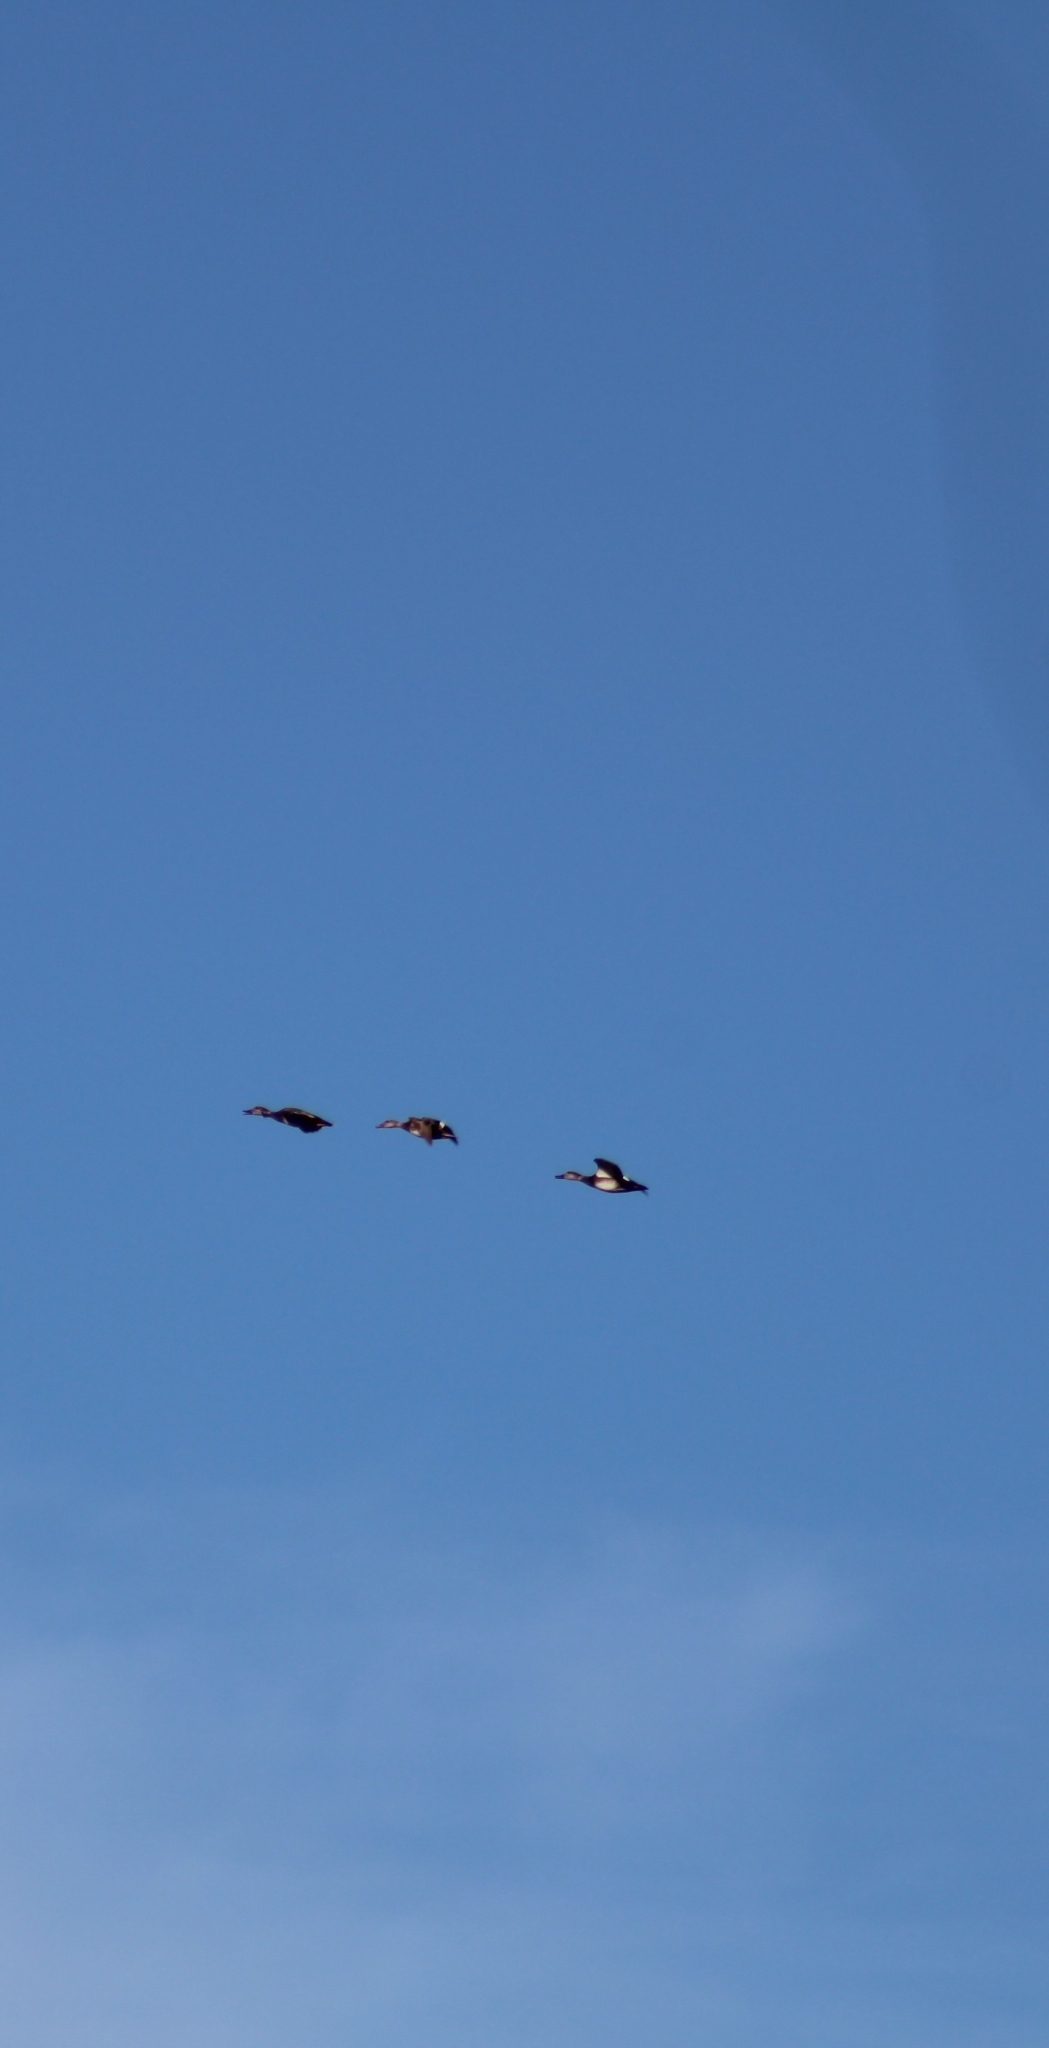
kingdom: Animalia
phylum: Chordata
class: Aves
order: Anseriformes
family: Anatidae
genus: Mareca
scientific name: Mareca strepera
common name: Gadwall
